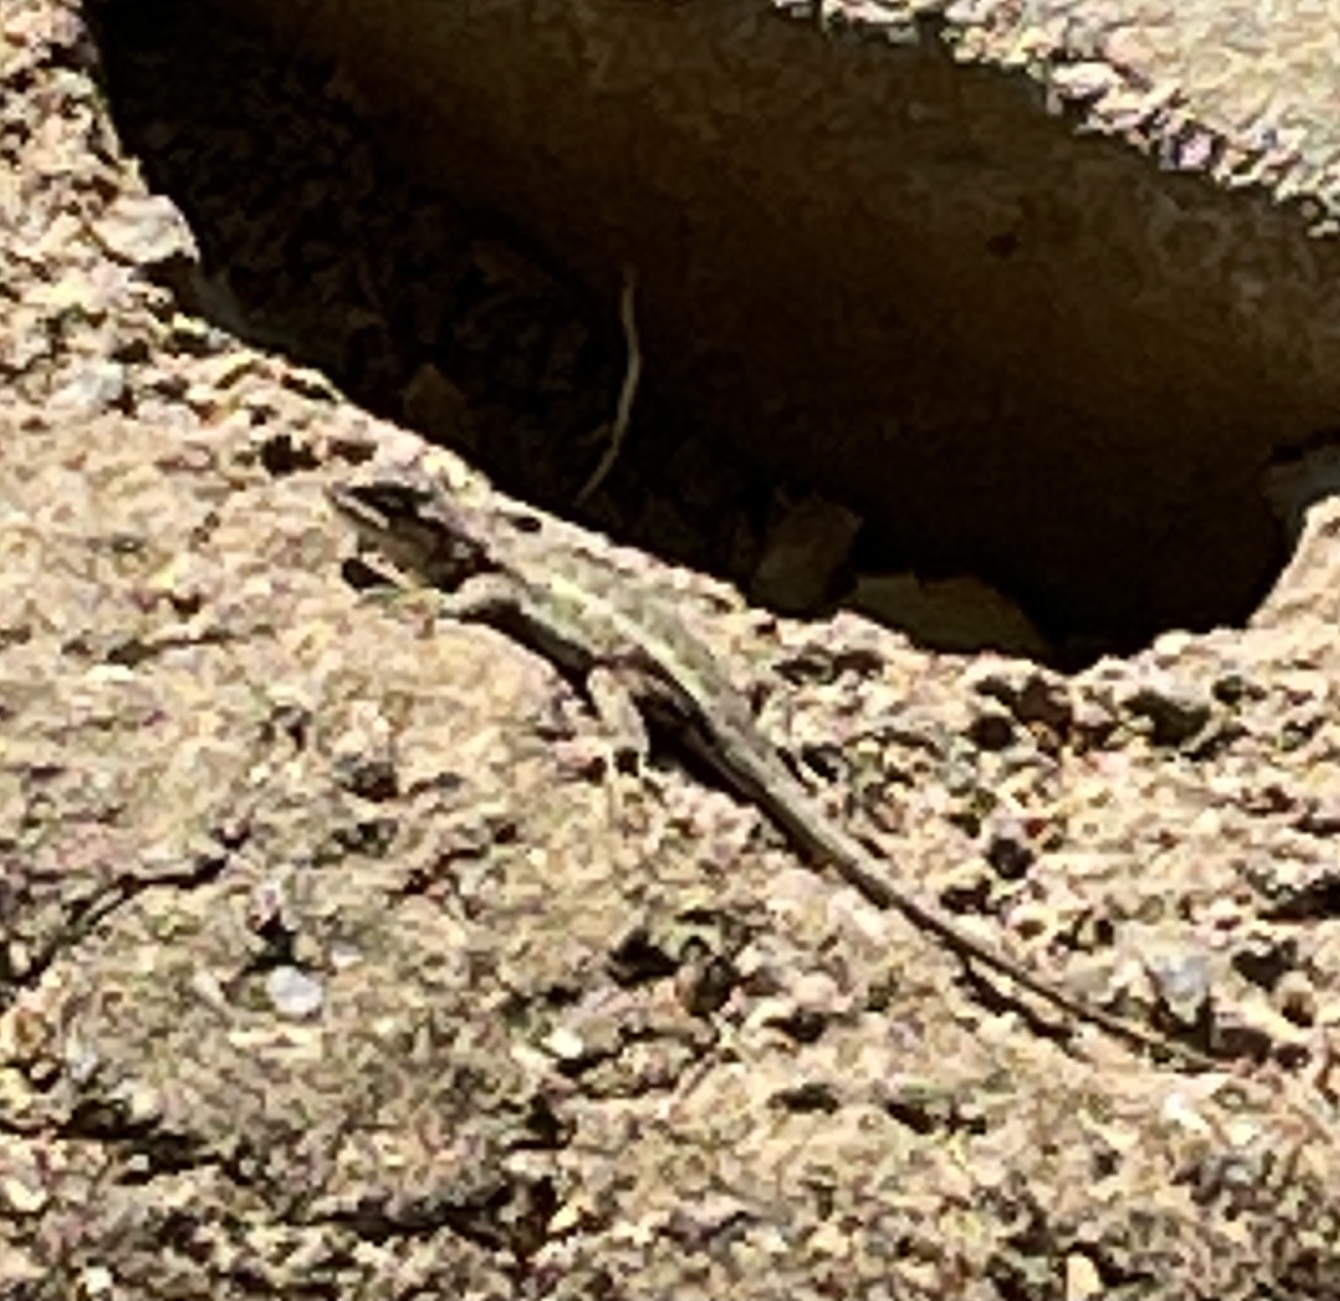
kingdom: Animalia
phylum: Chordata
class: Squamata
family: Phrynosomatidae
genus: Sceloporus
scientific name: Sceloporus occidentalis
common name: Western fence lizard
